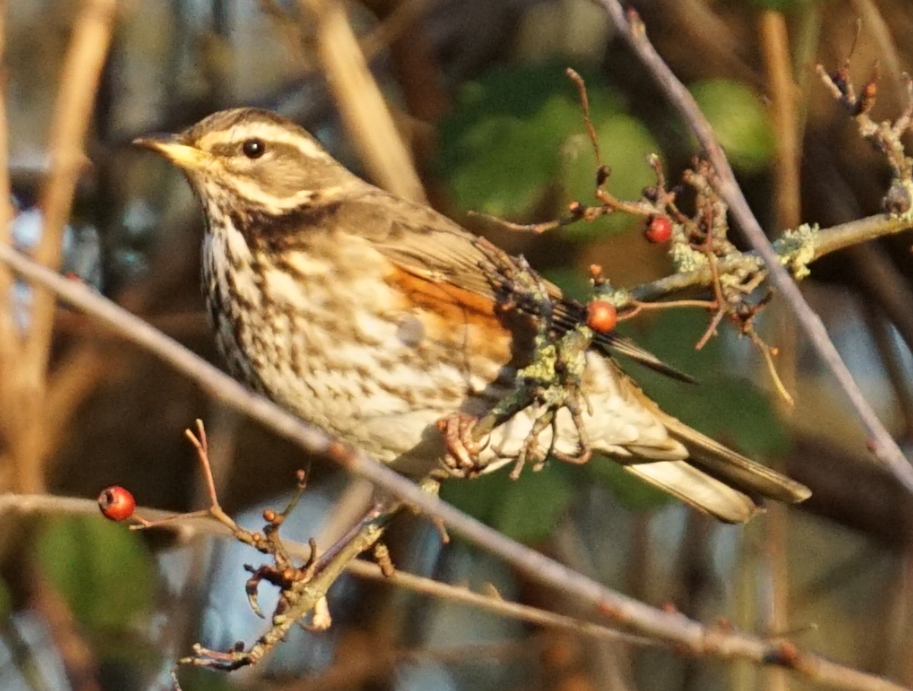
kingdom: Animalia
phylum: Chordata
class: Aves
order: Passeriformes
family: Turdidae
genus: Turdus
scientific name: Turdus iliacus
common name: Redwing
